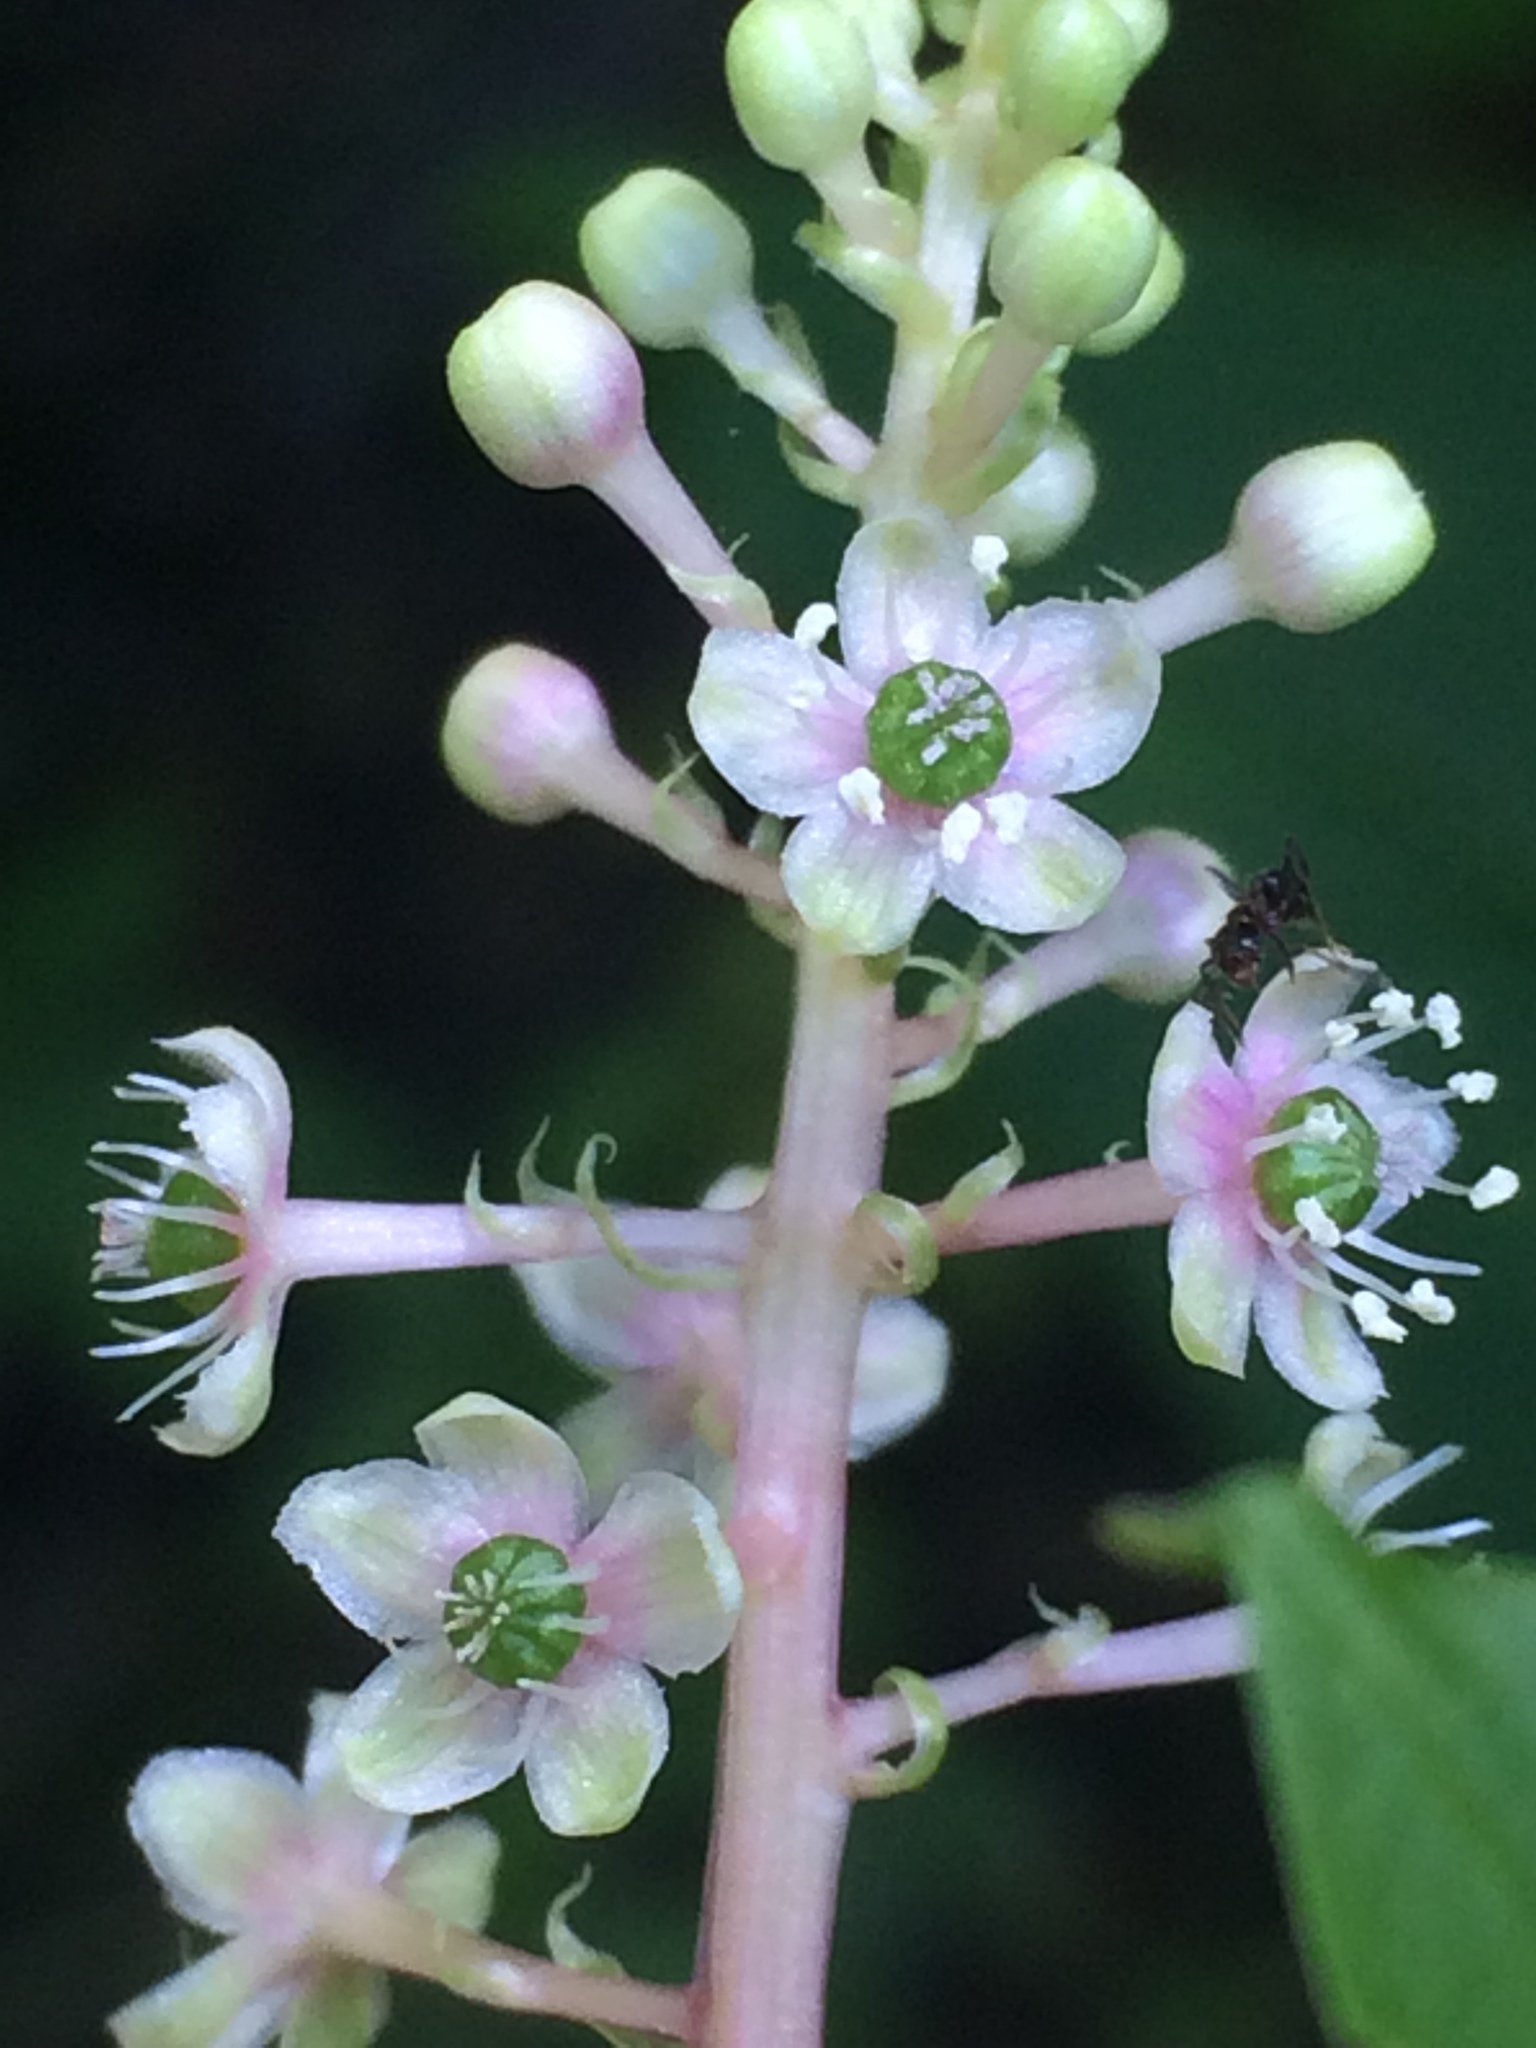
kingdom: Plantae
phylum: Tracheophyta
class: Magnoliopsida
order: Caryophyllales
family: Phytolaccaceae
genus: Phytolacca
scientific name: Phytolacca americana
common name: American pokeweed
